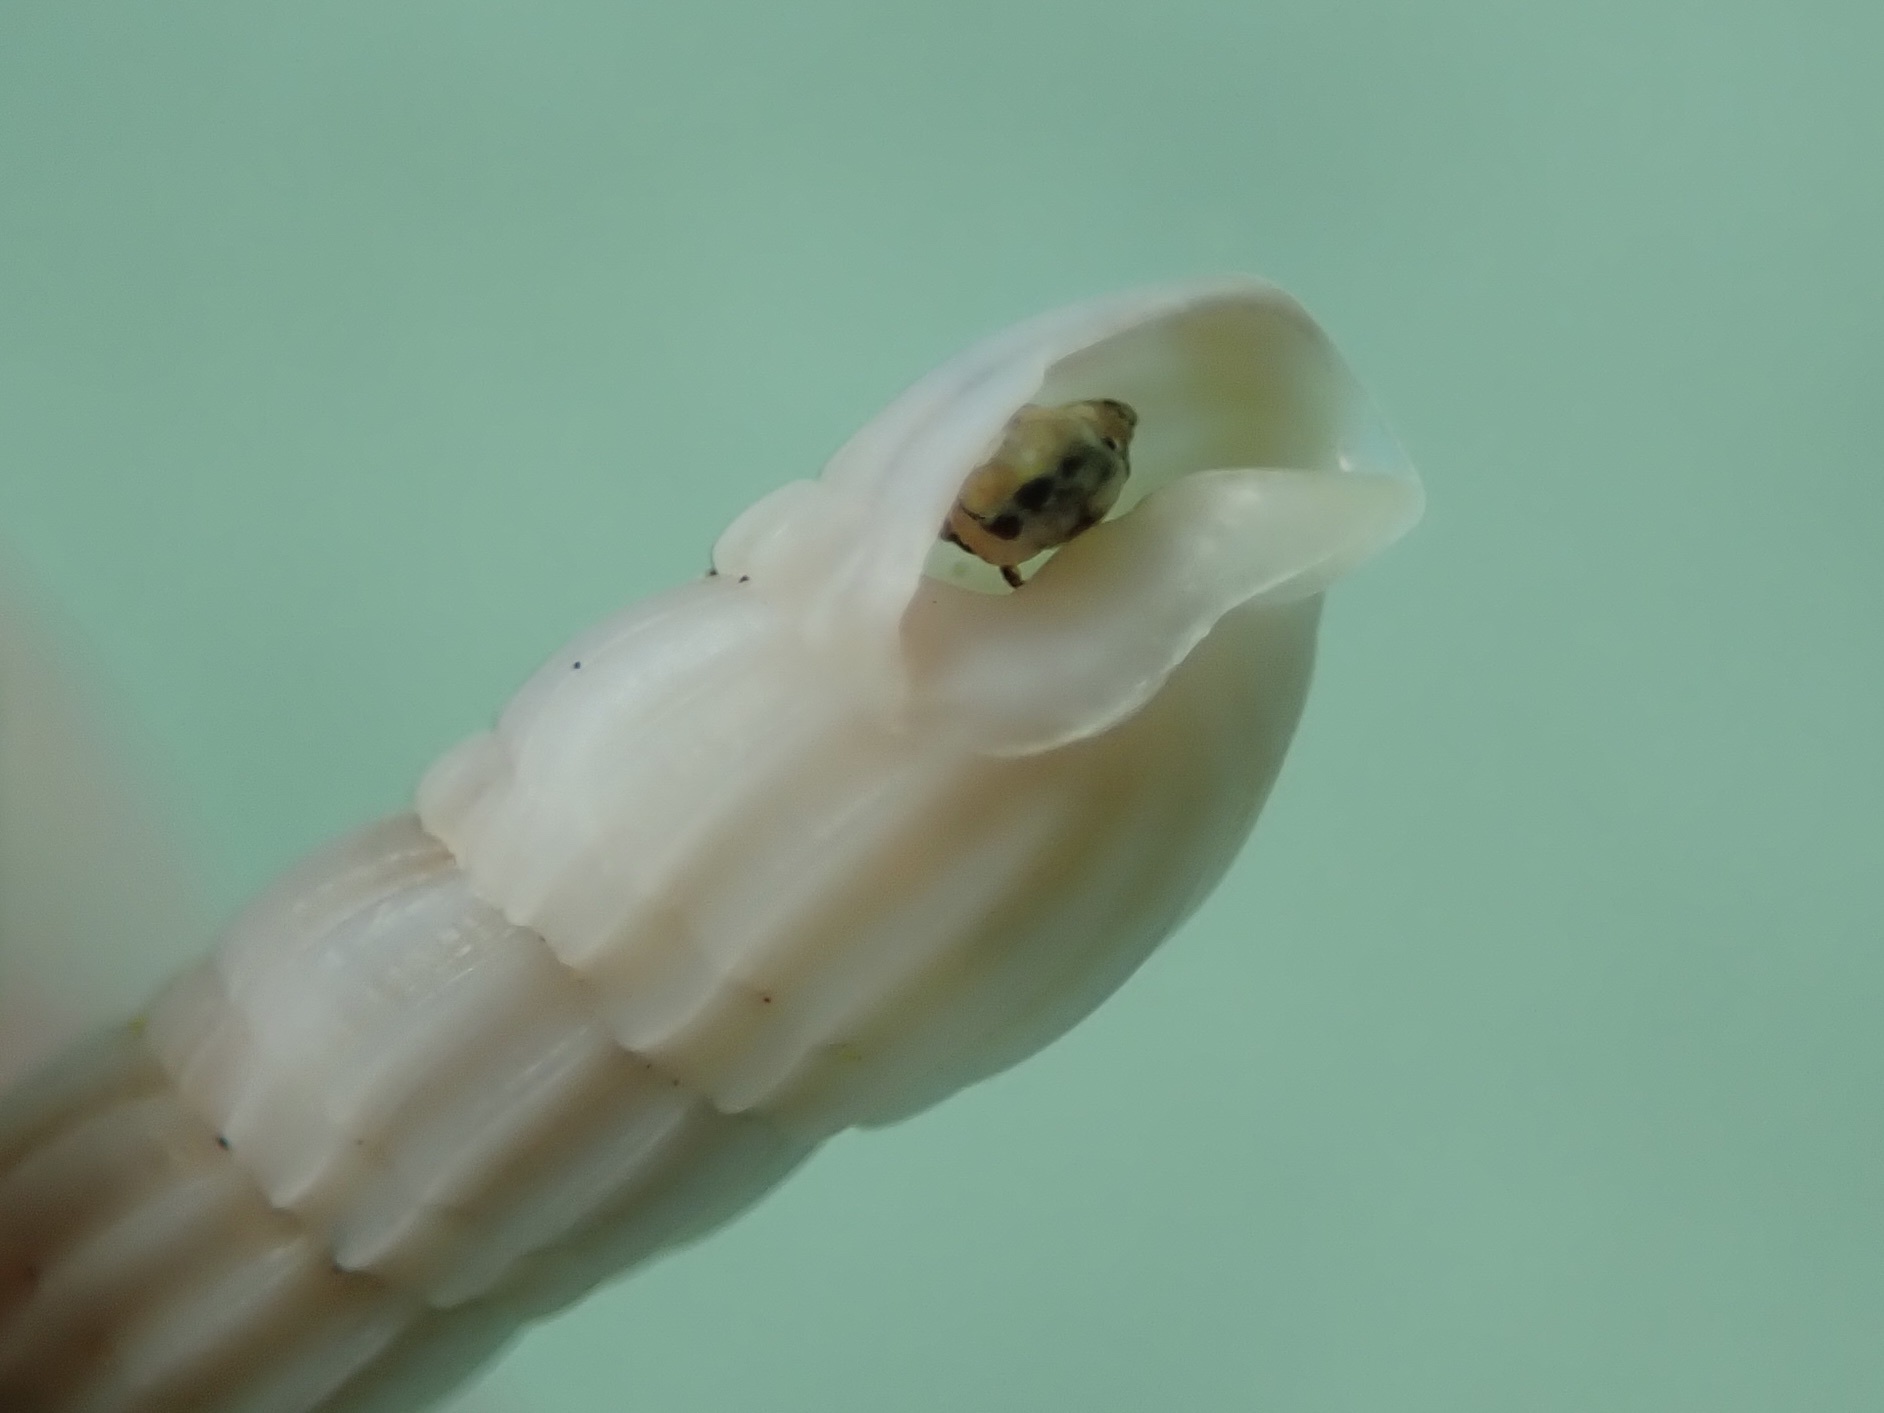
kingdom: Animalia
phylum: Mollusca
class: Gastropoda
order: Neogastropoda
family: Terebridae
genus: Punctoterebra
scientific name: Punctoterebra nitida
